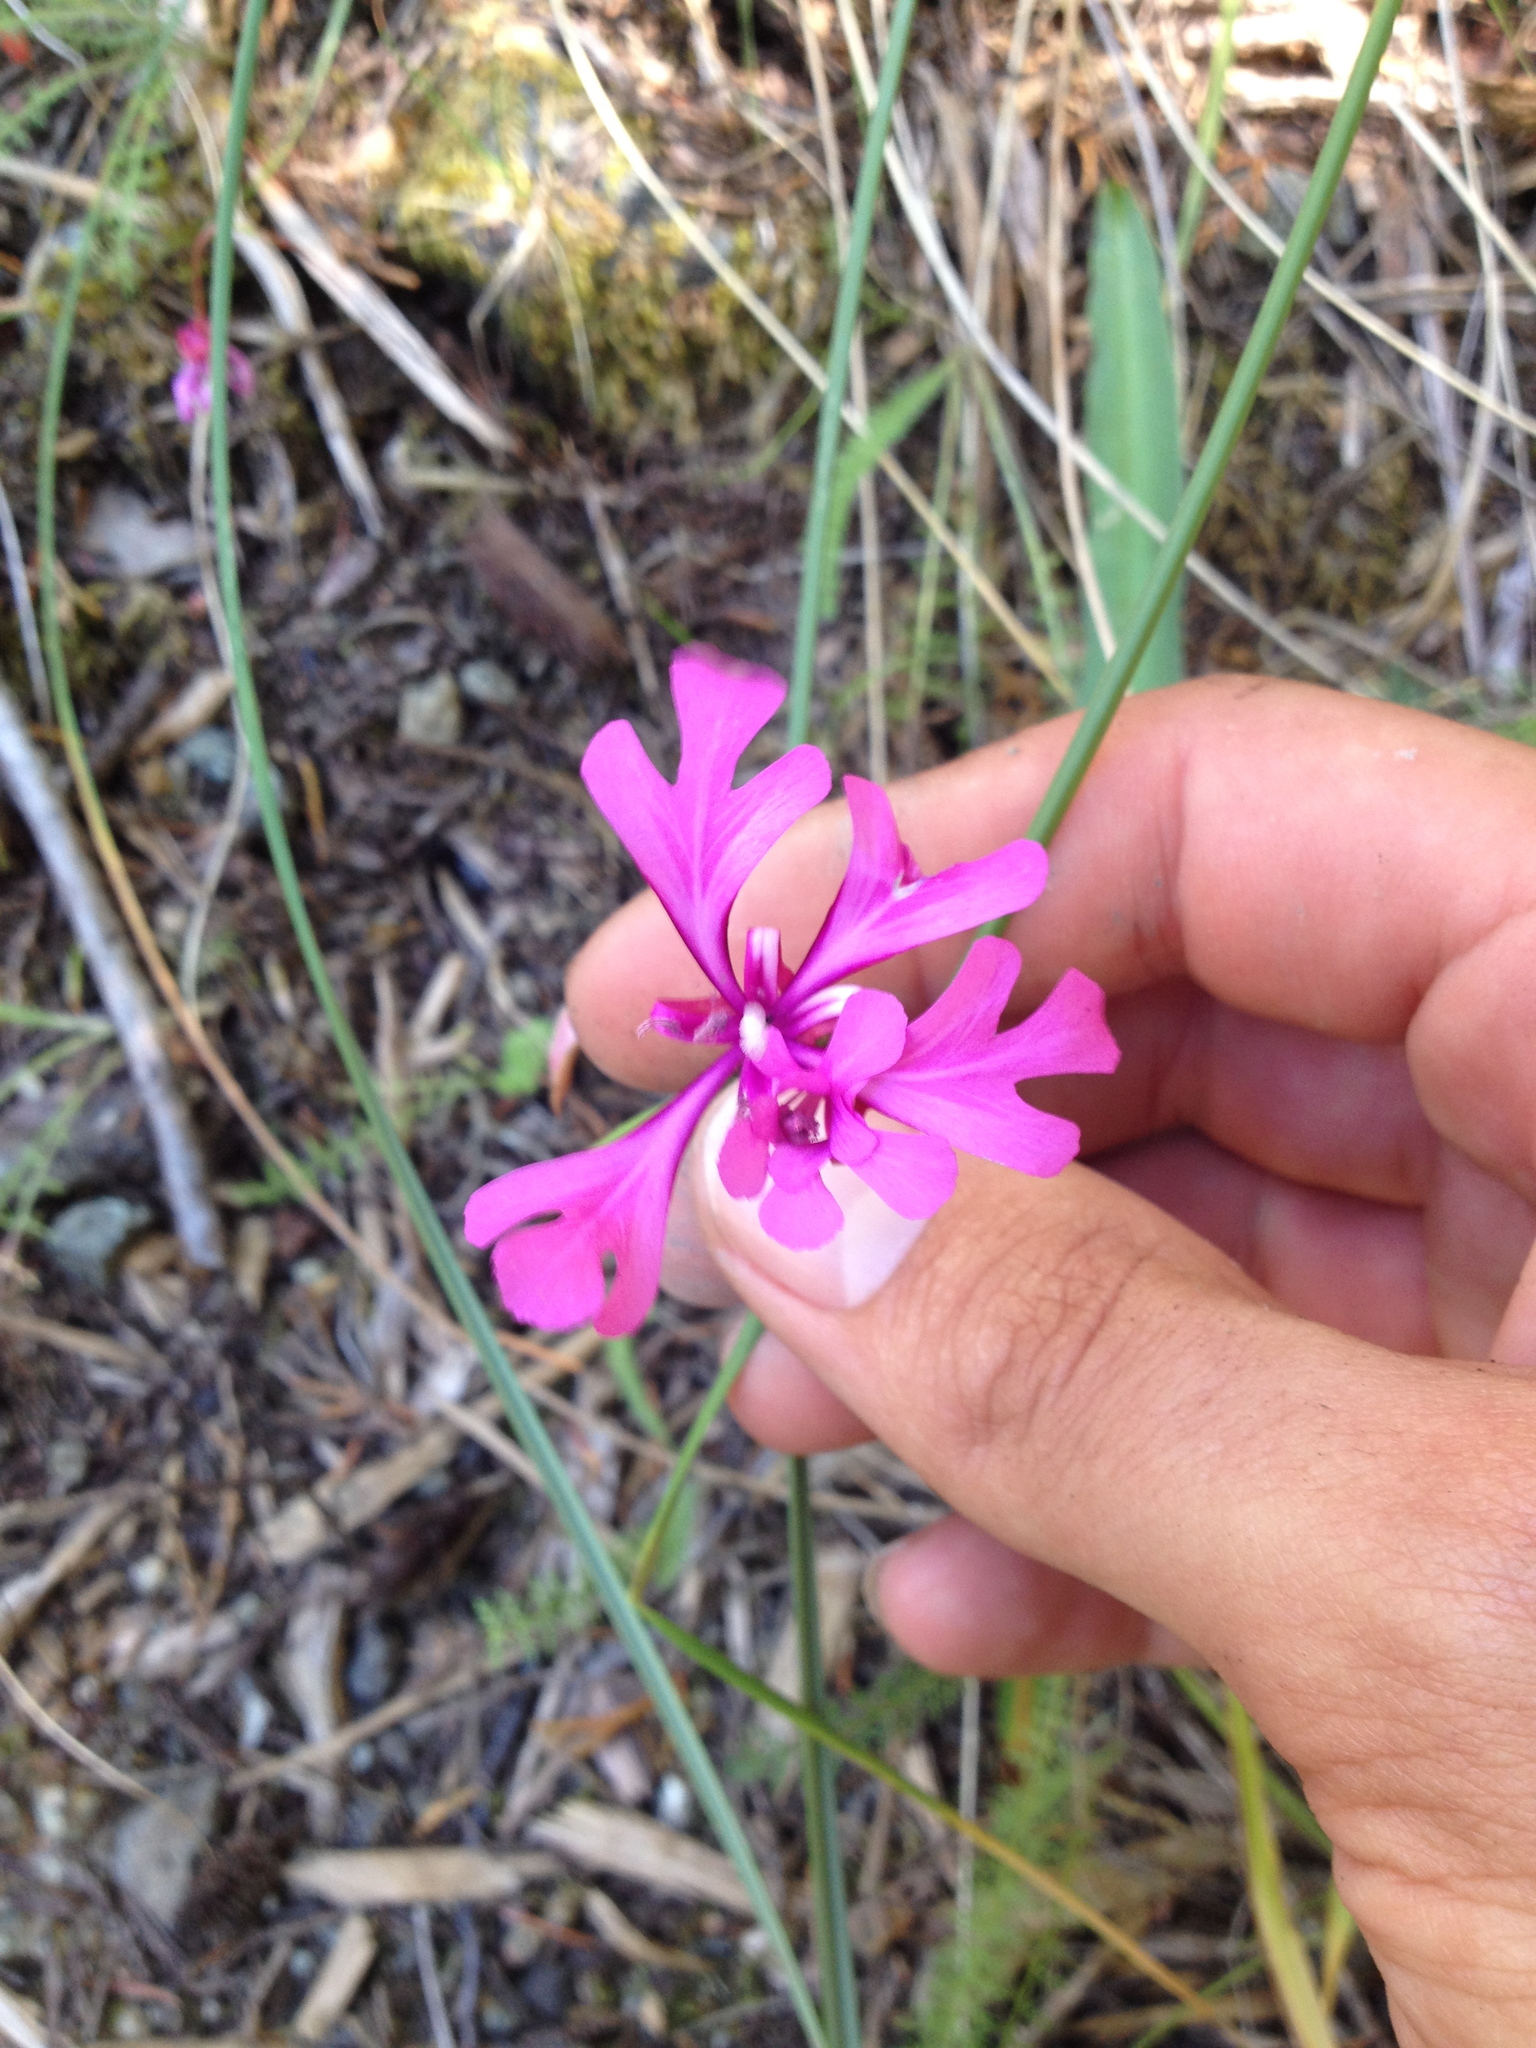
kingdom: Plantae
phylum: Tracheophyta
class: Magnoliopsida
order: Myrtales
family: Onagraceae
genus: Clarkia
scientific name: Clarkia concinna
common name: Red-ribbons
